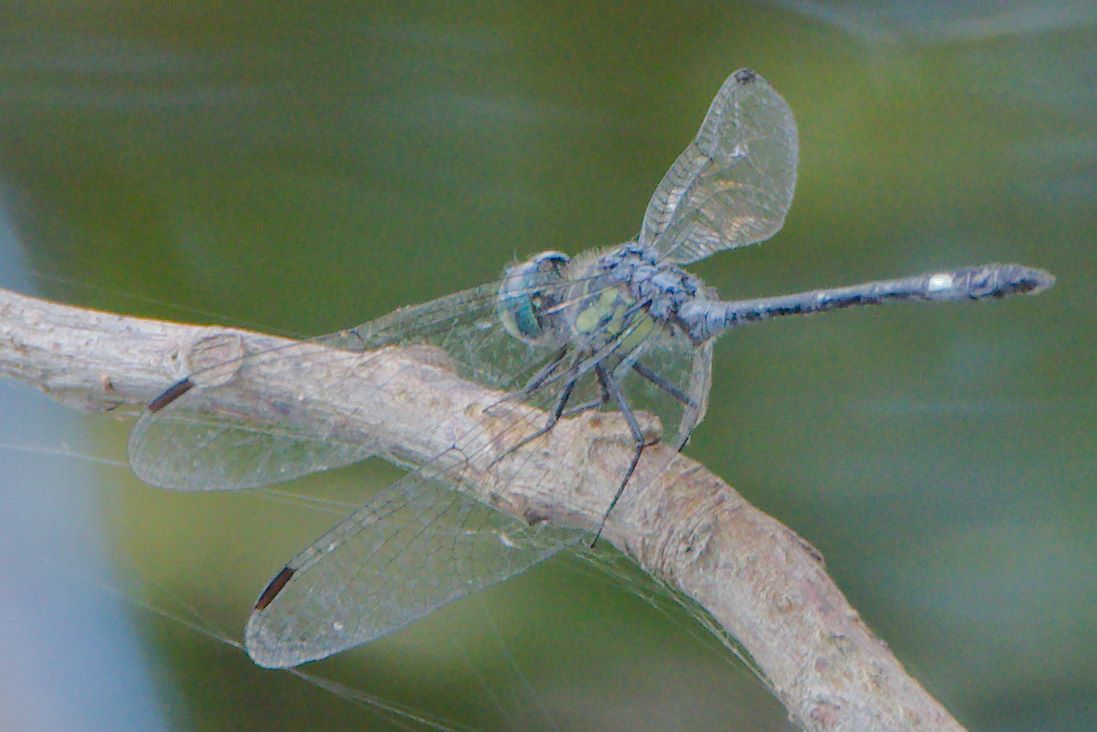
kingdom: Animalia
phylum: Arthropoda
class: Insecta
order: Odonata
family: Libellulidae
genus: Micrathyria
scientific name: Micrathyria didyma
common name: Three-striped dasher
